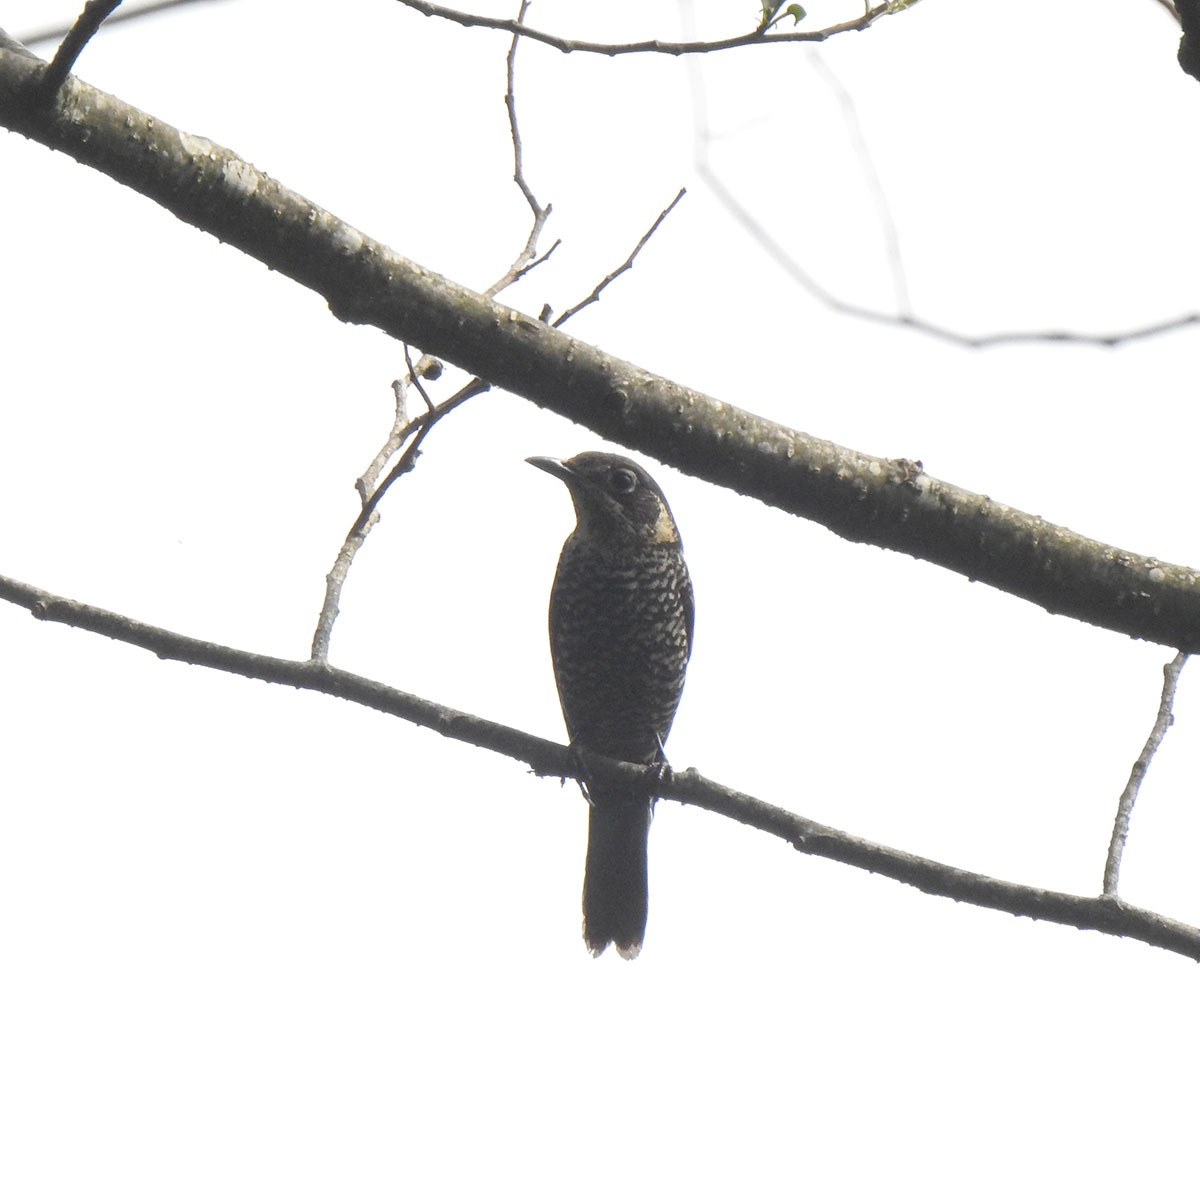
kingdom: Animalia
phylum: Chordata
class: Aves
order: Passeriformes
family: Muscicapidae
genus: Monticola
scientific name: Monticola rufiventris
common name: Chestnut-bellied rock thrush
